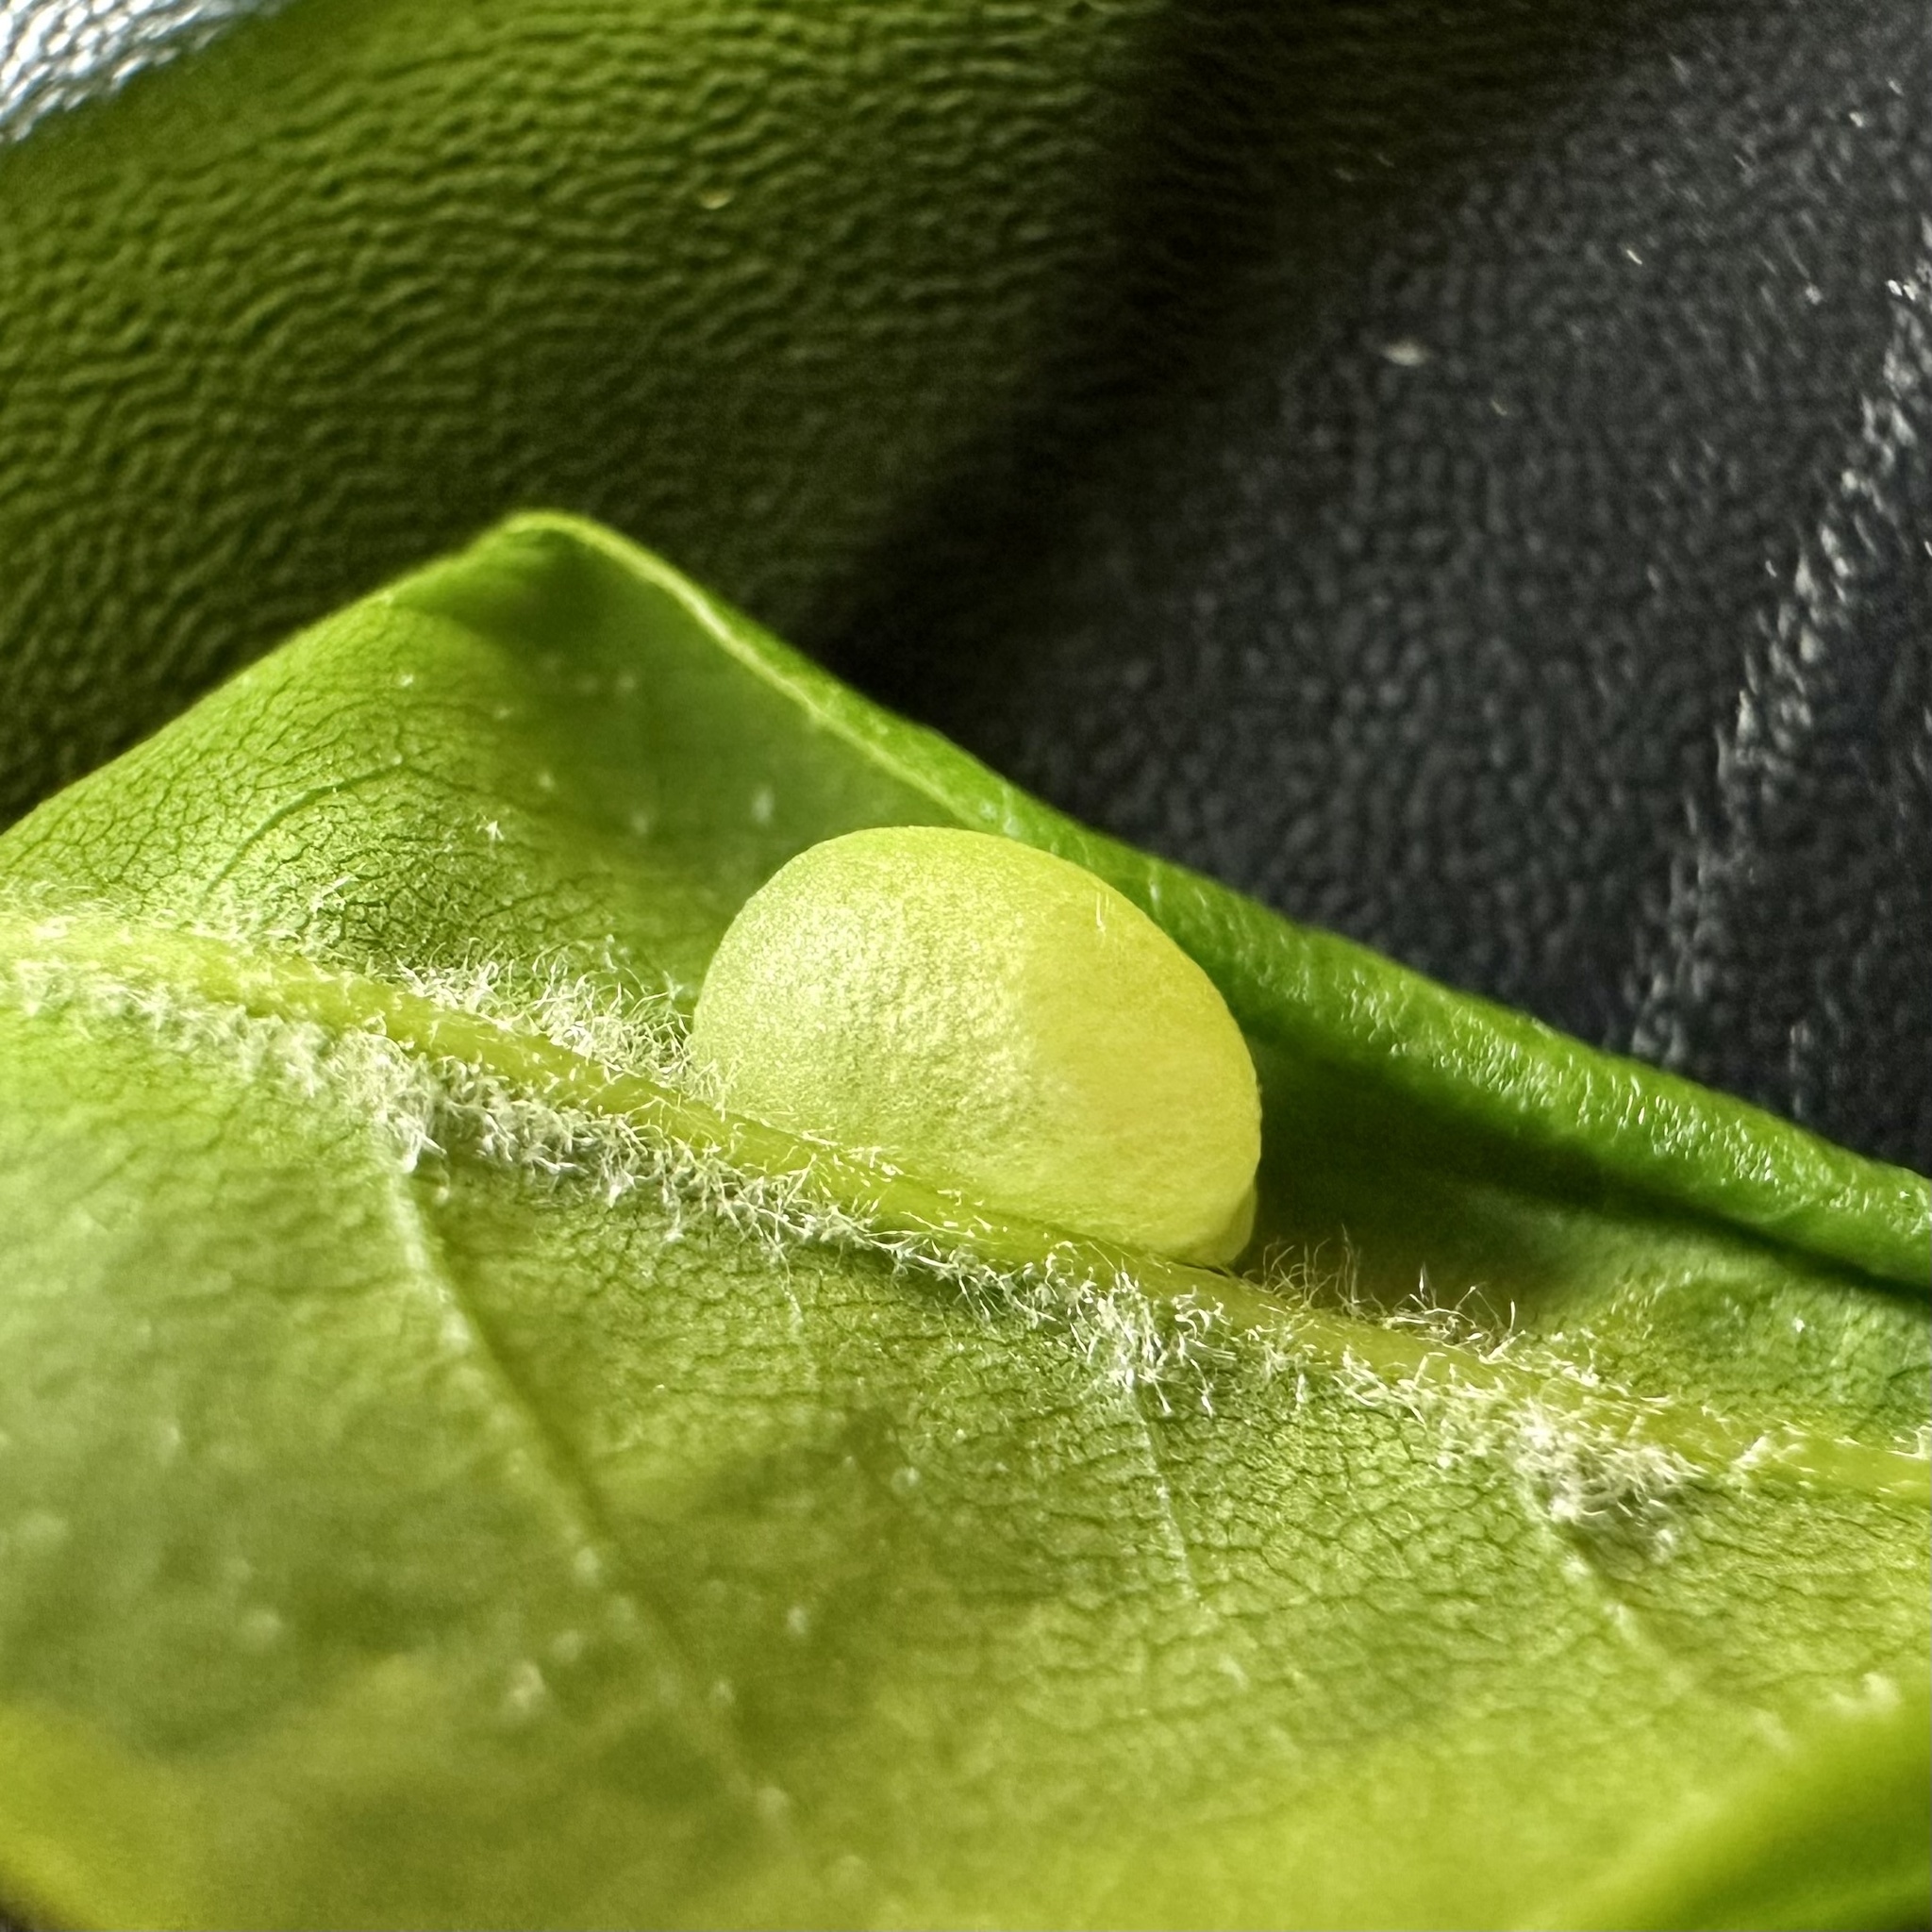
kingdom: Animalia
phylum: Arthropoda
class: Insecta
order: Hymenoptera
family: Cynipidae
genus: Dryocosmus
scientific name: Dryocosmus
